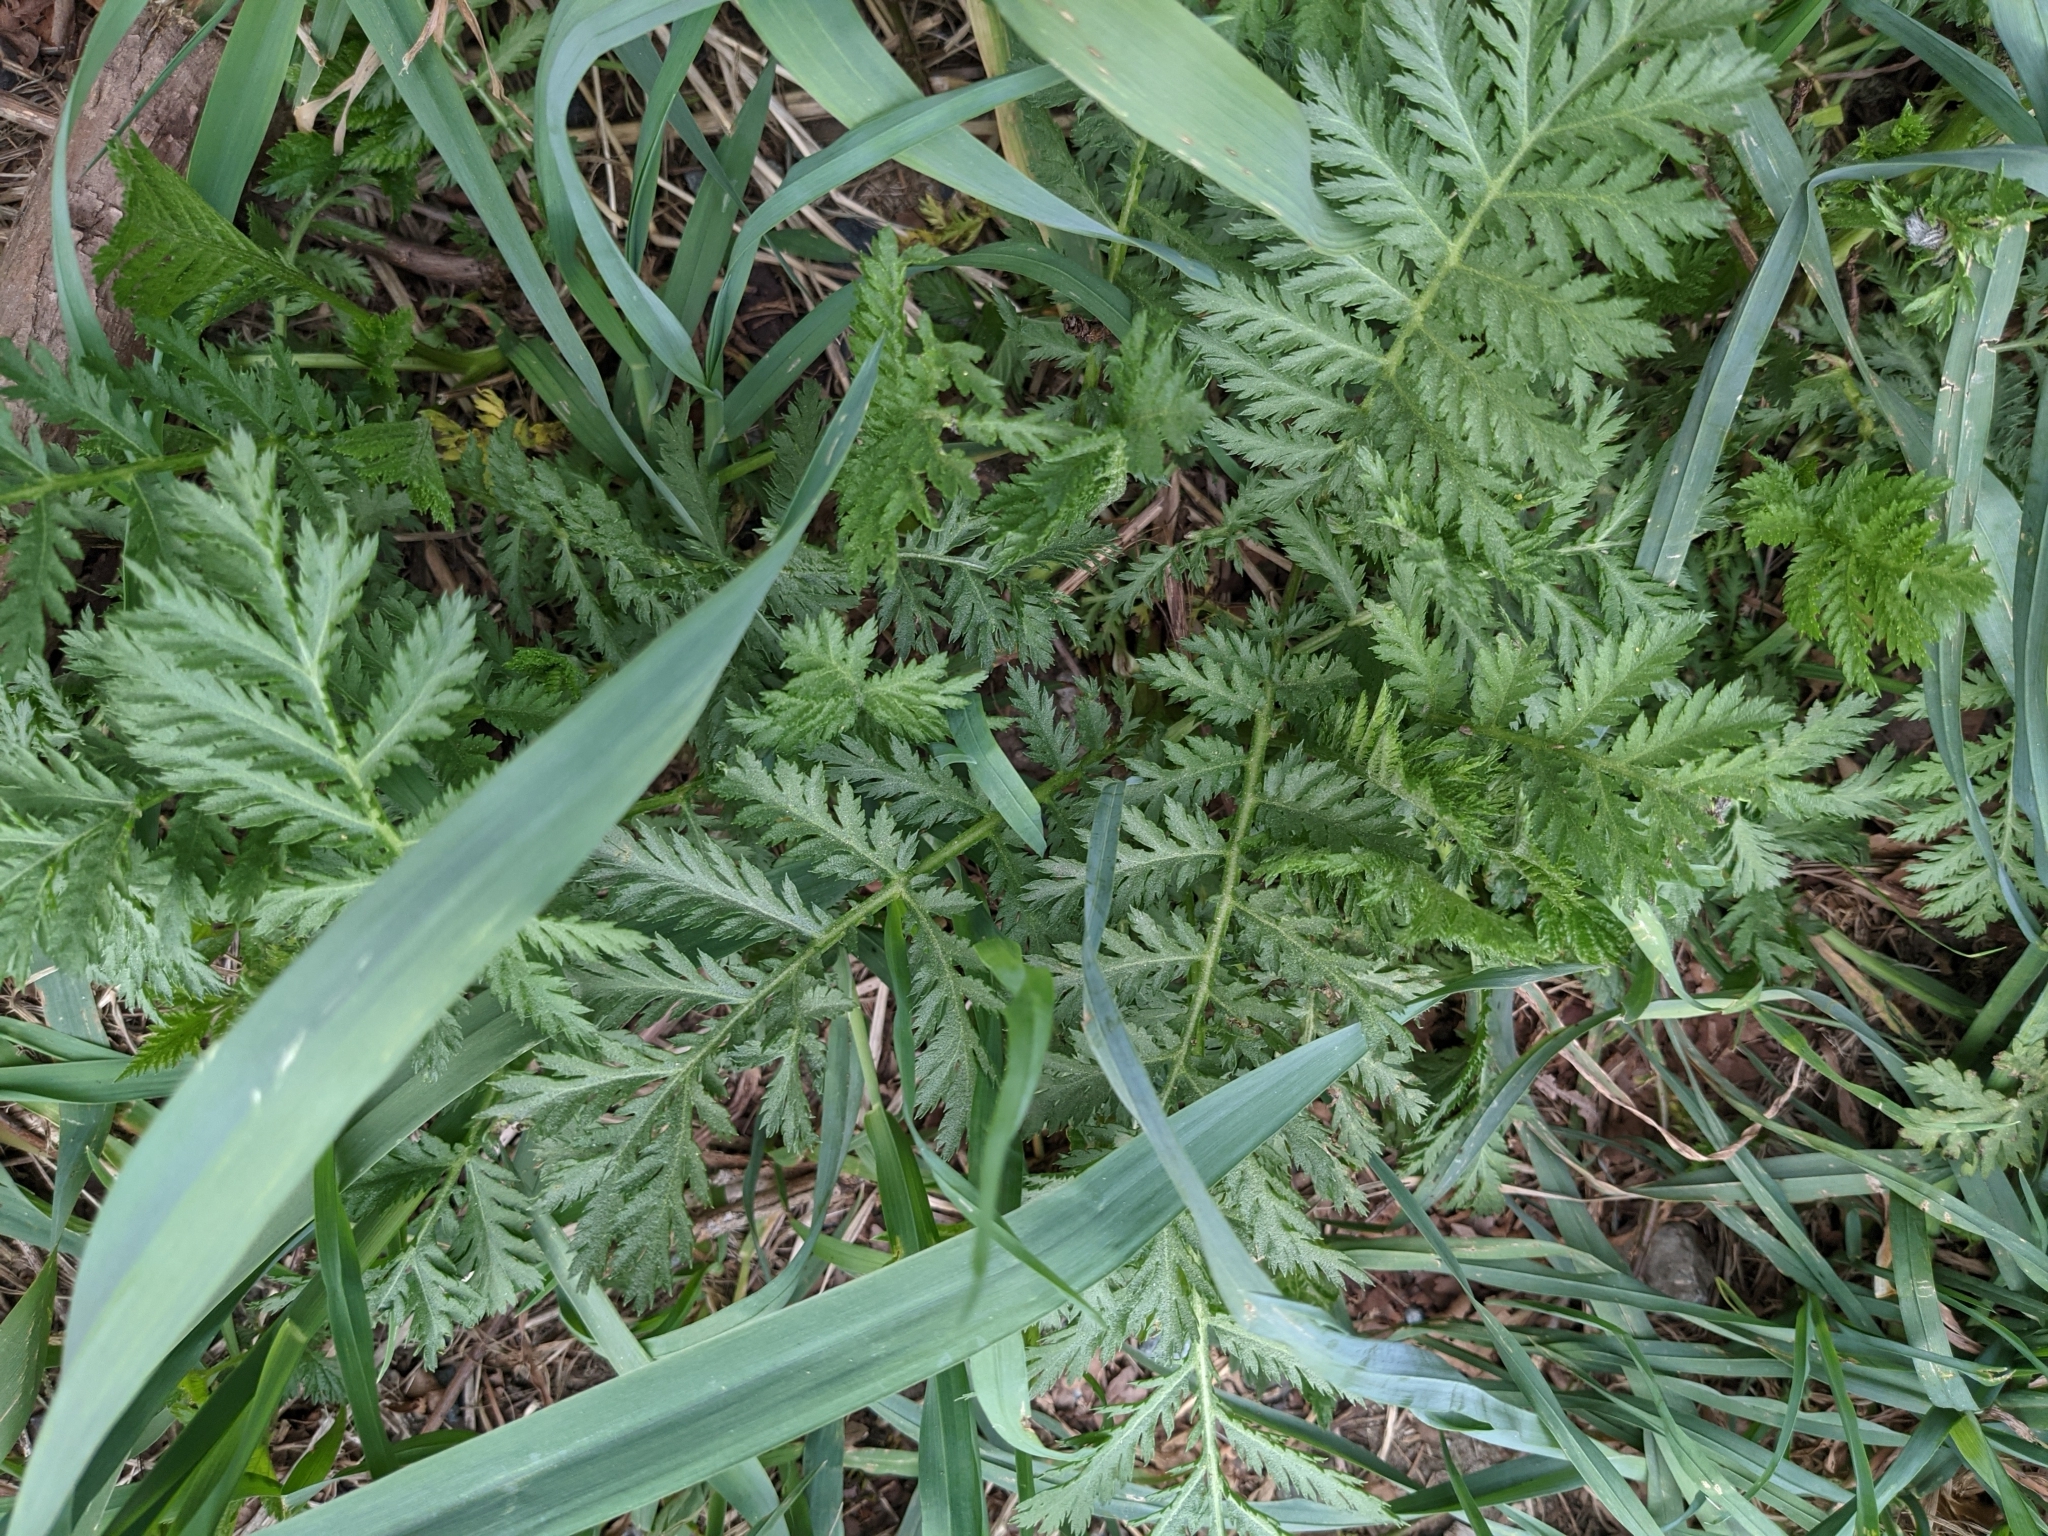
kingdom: Plantae
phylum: Tracheophyta
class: Magnoliopsida
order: Asterales
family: Asteraceae
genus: Tanacetum
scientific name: Tanacetum vulgare
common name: Common tansy
